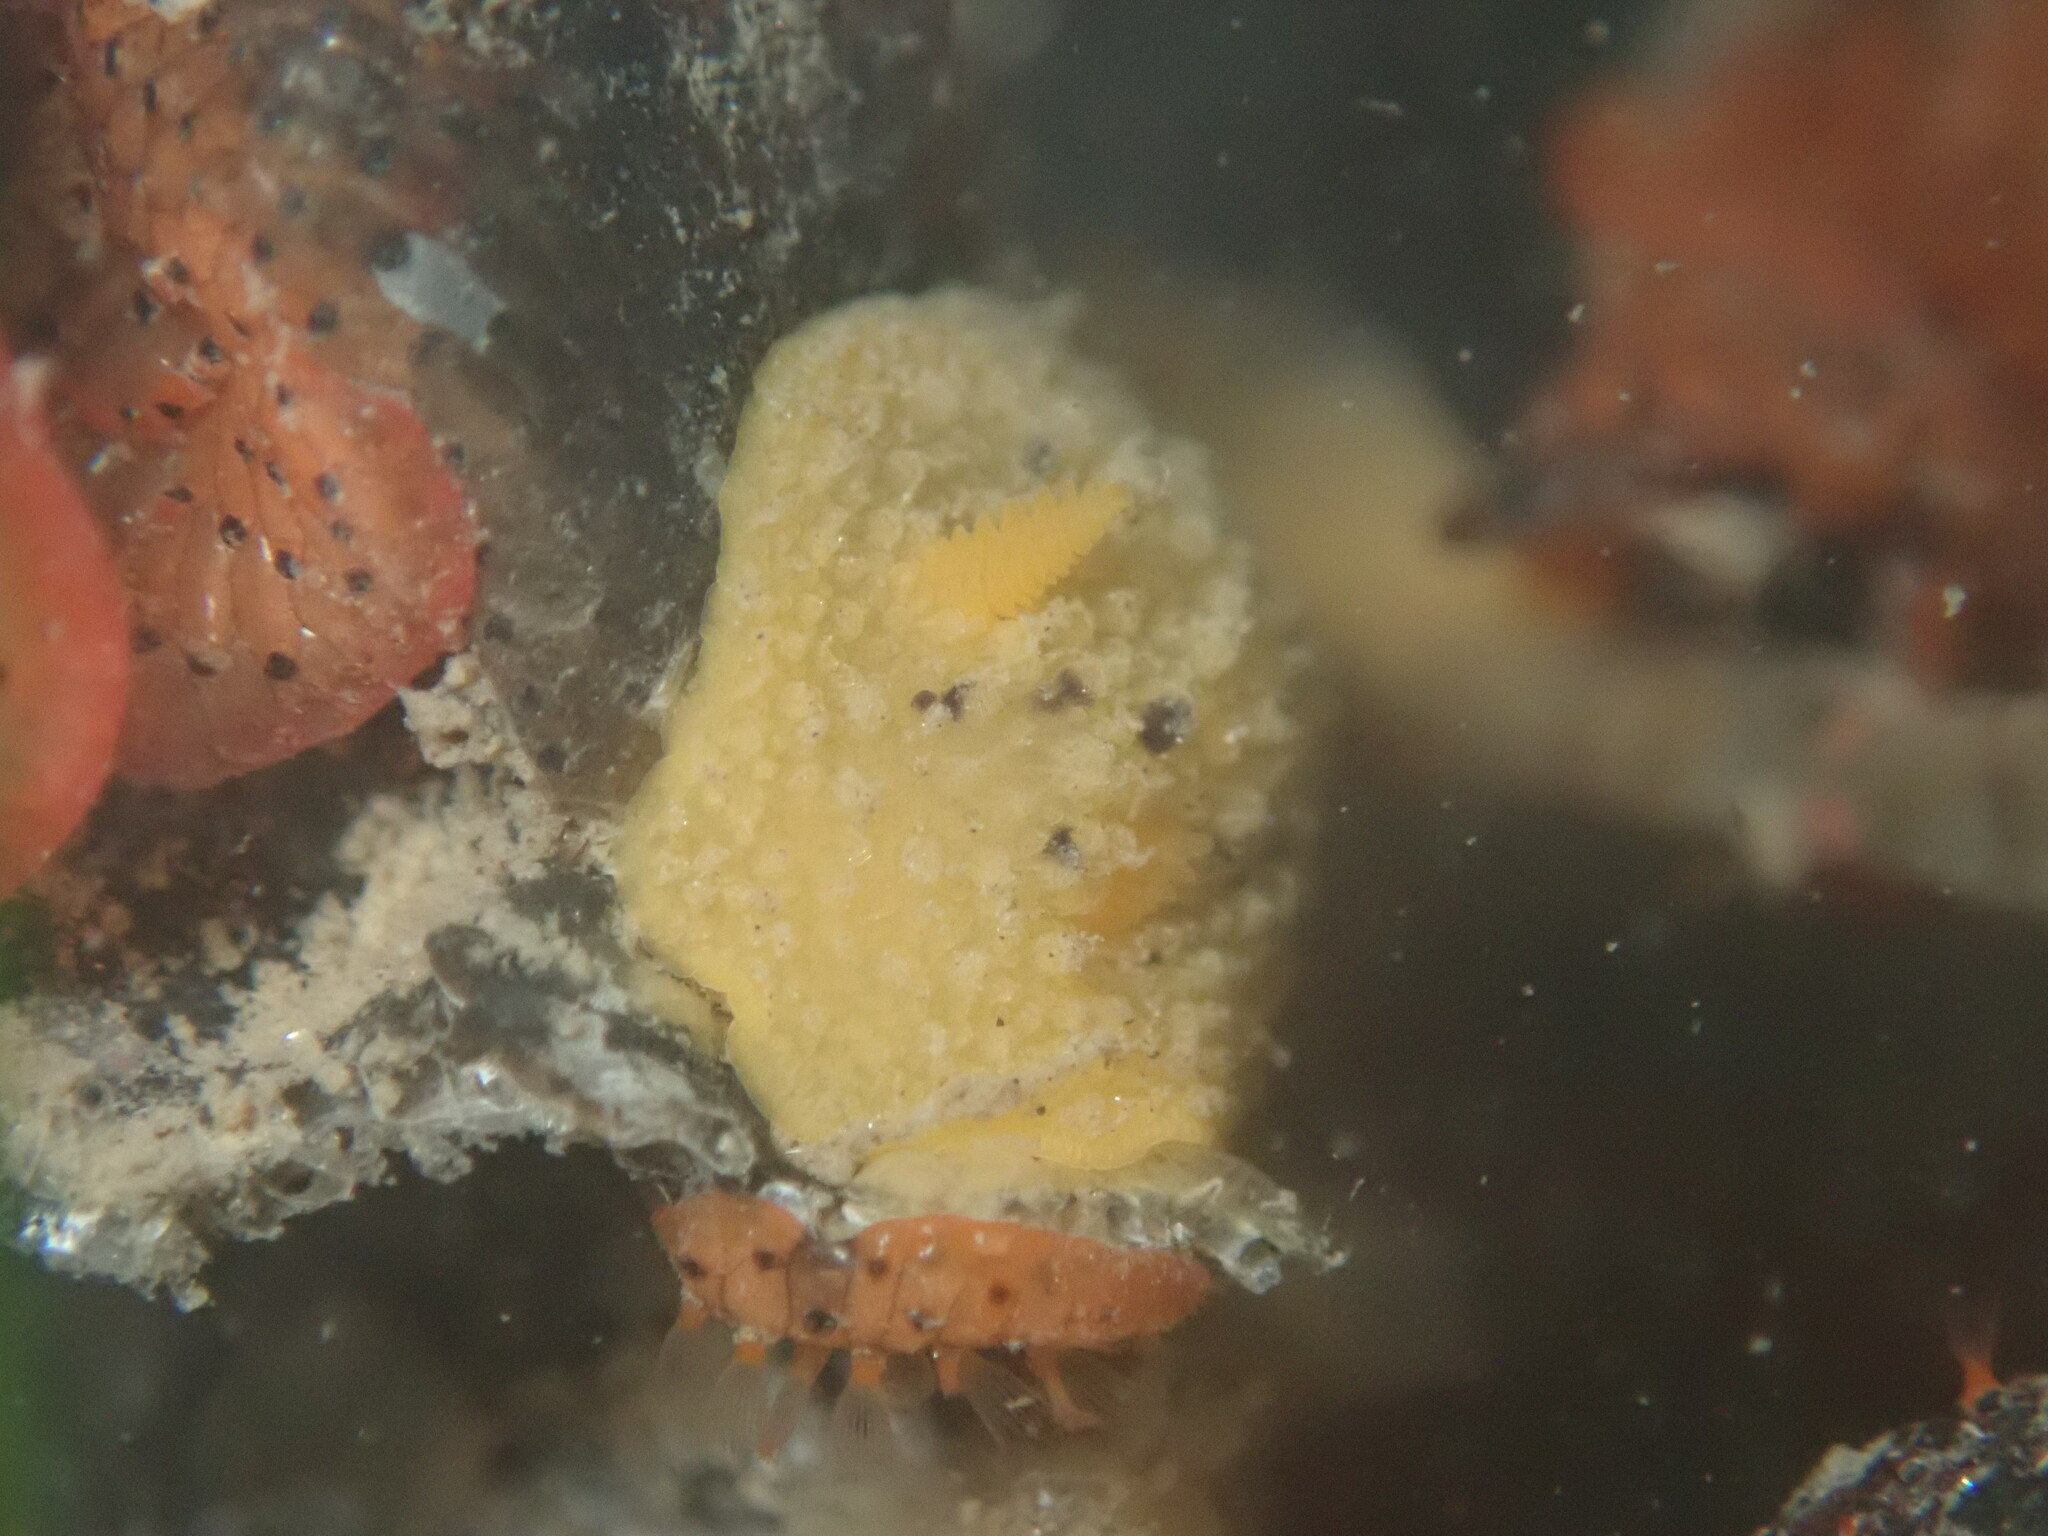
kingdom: Animalia
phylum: Mollusca
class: Gastropoda
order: Nudibranchia
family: Dorididae
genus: Doris
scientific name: Doris montereyensis
